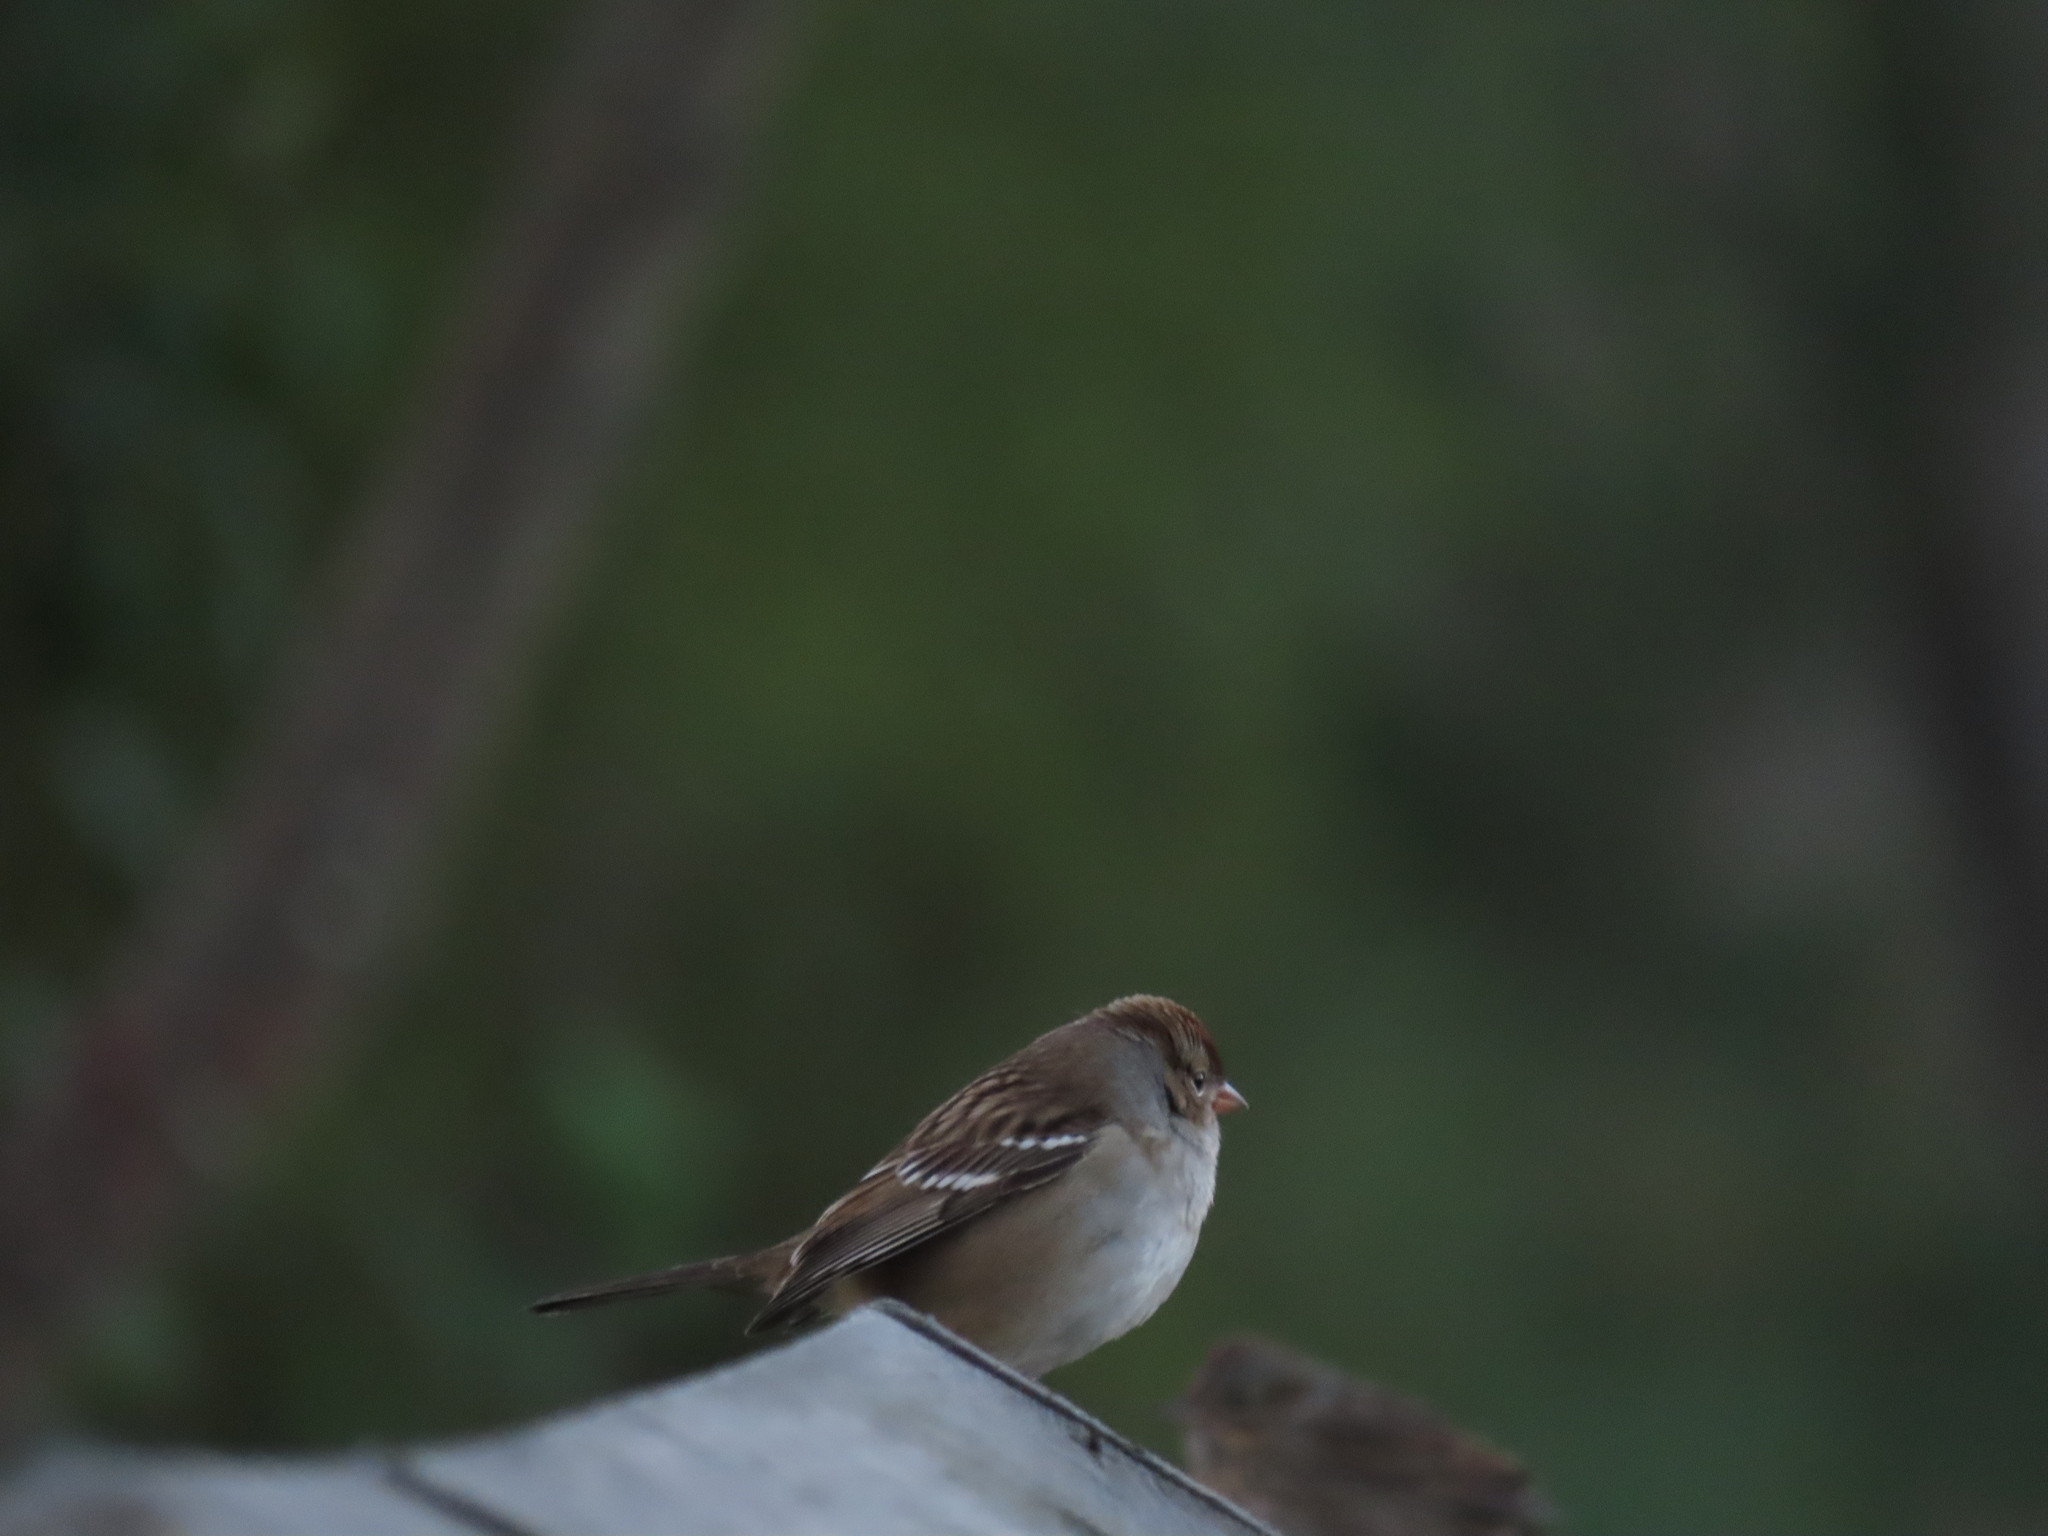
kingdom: Animalia
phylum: Chordata
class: Aves
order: Passeriformes
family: Passerellidae
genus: Zonotrichia
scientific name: Zonotrichia leucophrys
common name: White-crowned sparrow
